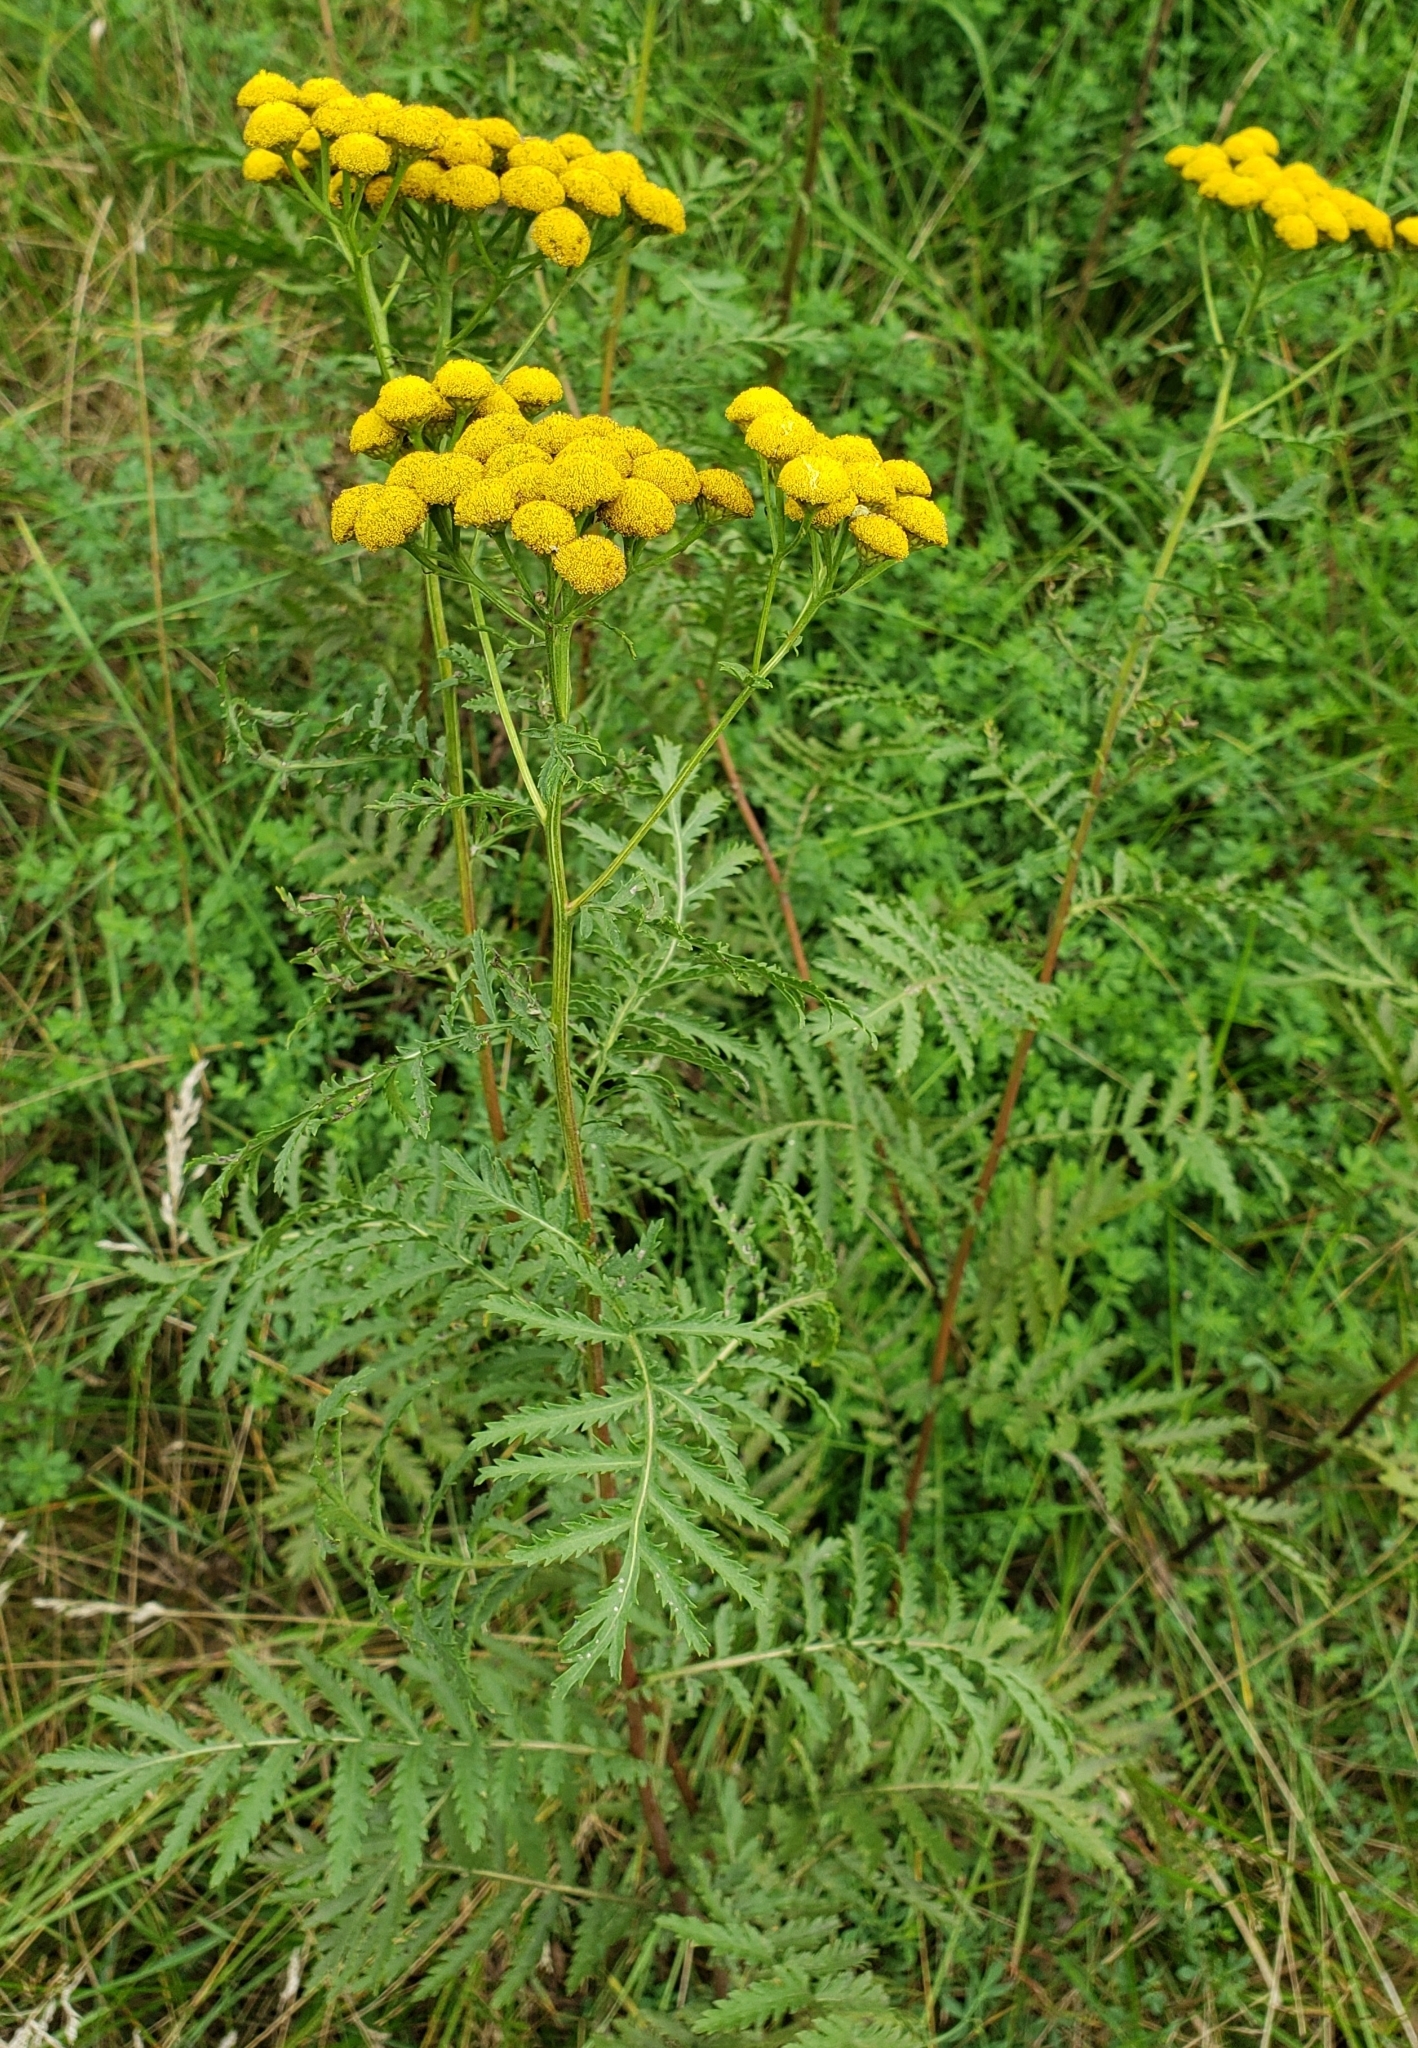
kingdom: Plantae
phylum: Tracheophyta
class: Magnoliopsida
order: Asterales
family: Asteraceae
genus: Tanacetum
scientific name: Tanacetum vulgare
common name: Common tansy
